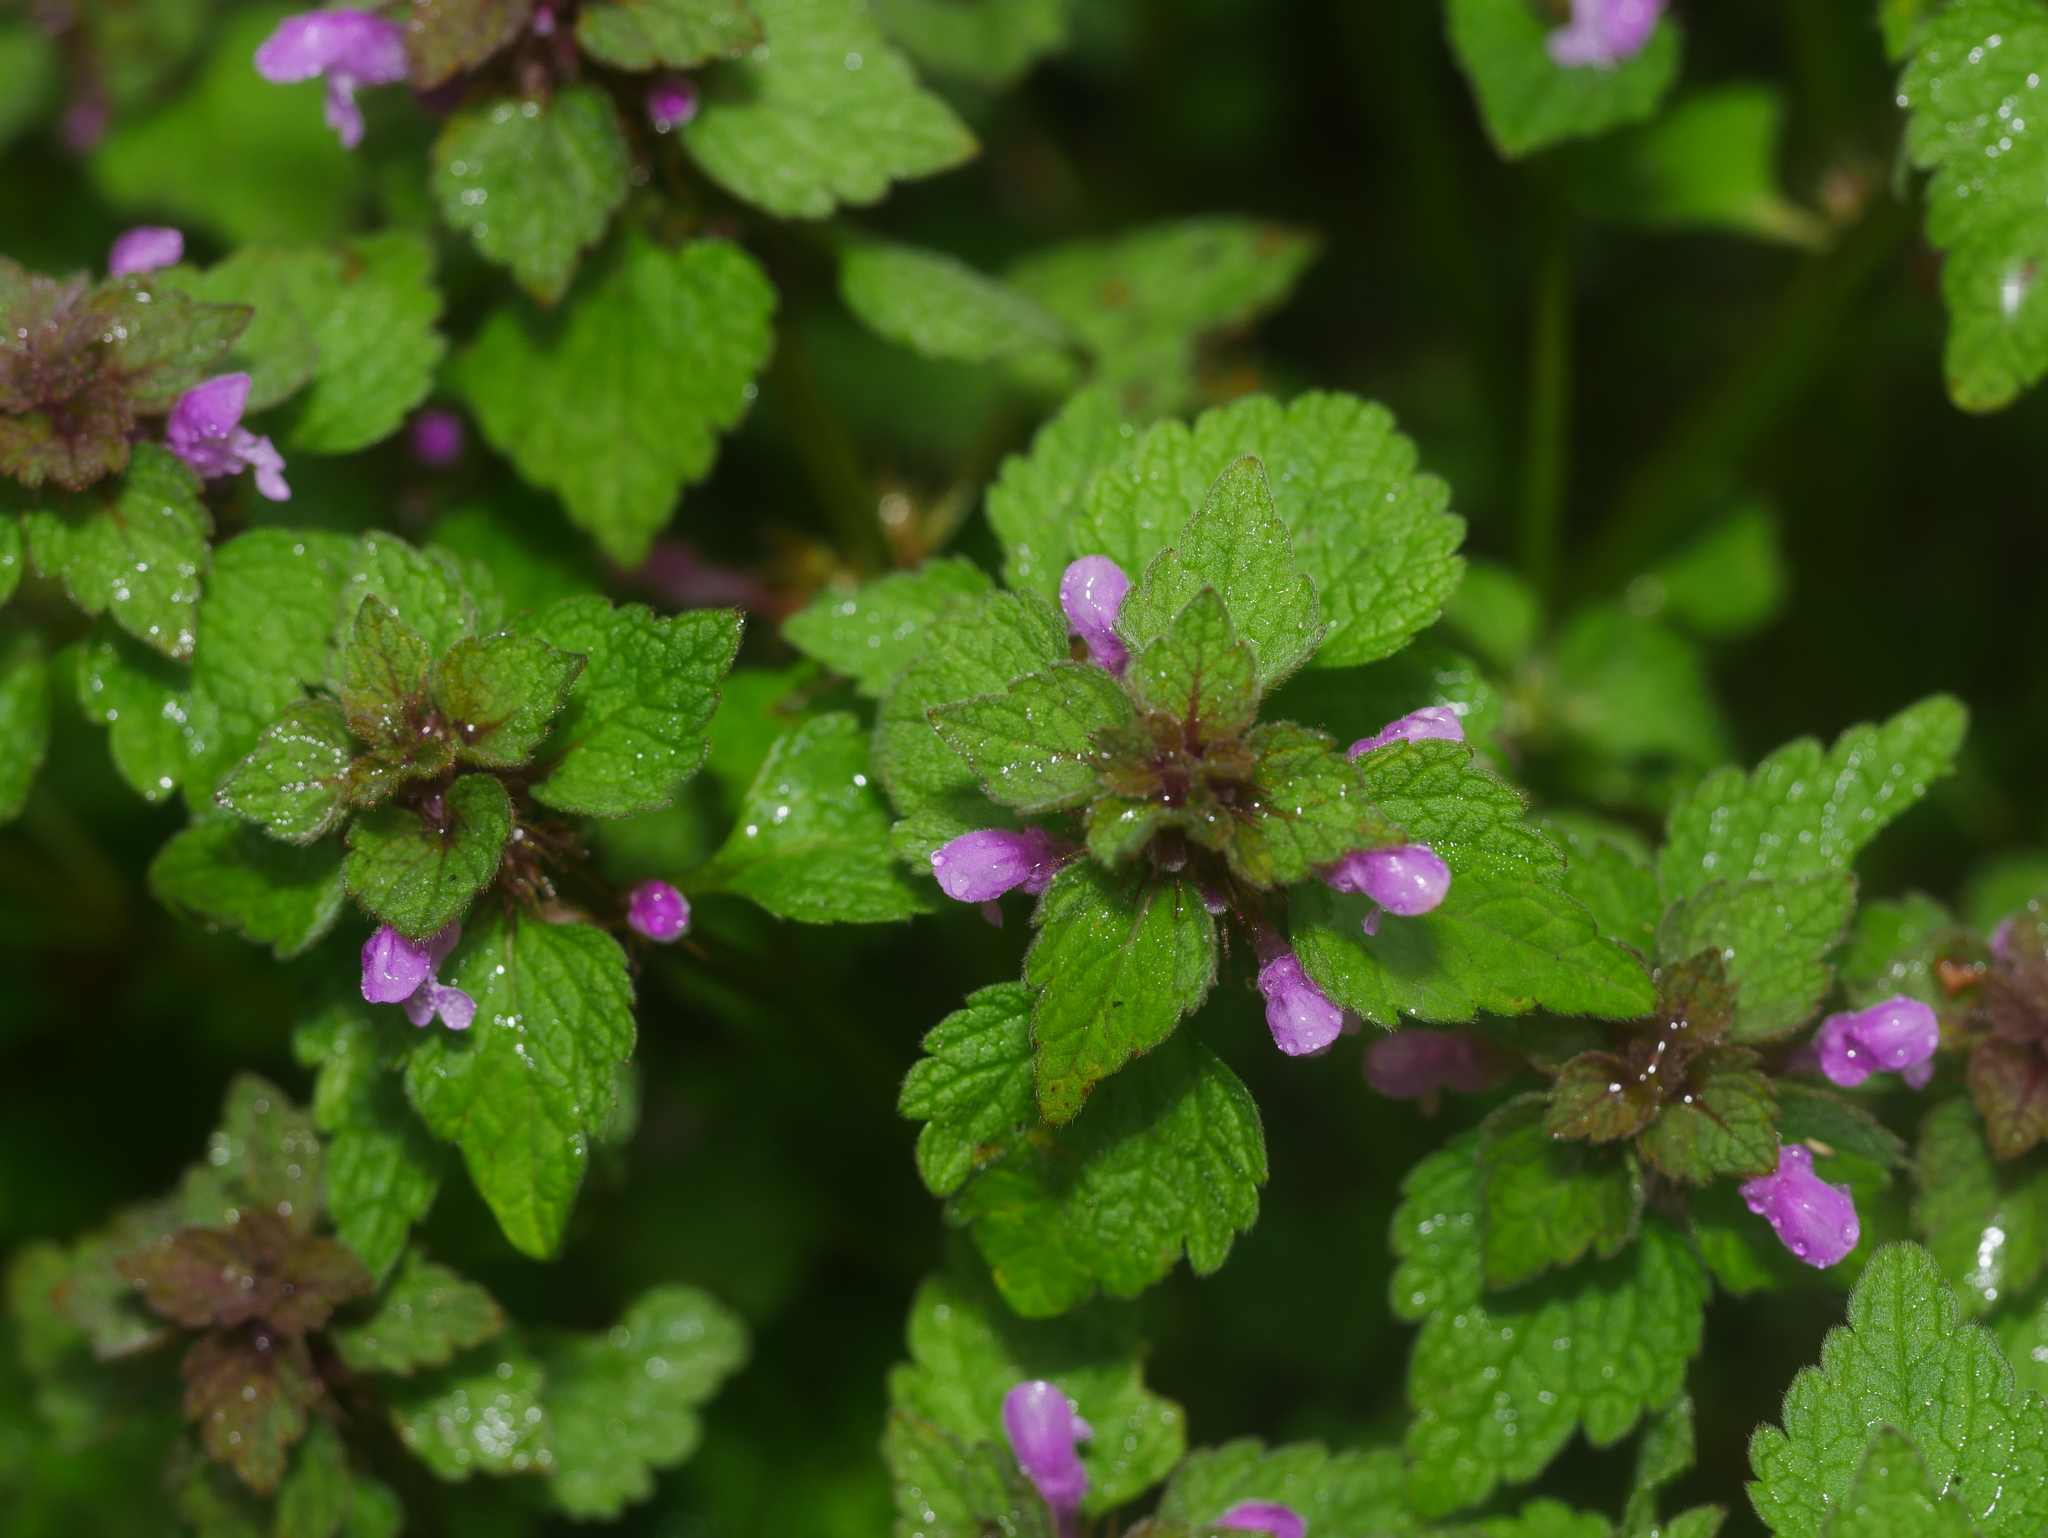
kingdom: Plantae
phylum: Tracheophyta
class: Magnoliopsida
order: Lamiales
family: Lamiaceae
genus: Lamium
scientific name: Lamium purpureum
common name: Red dead-nettle
